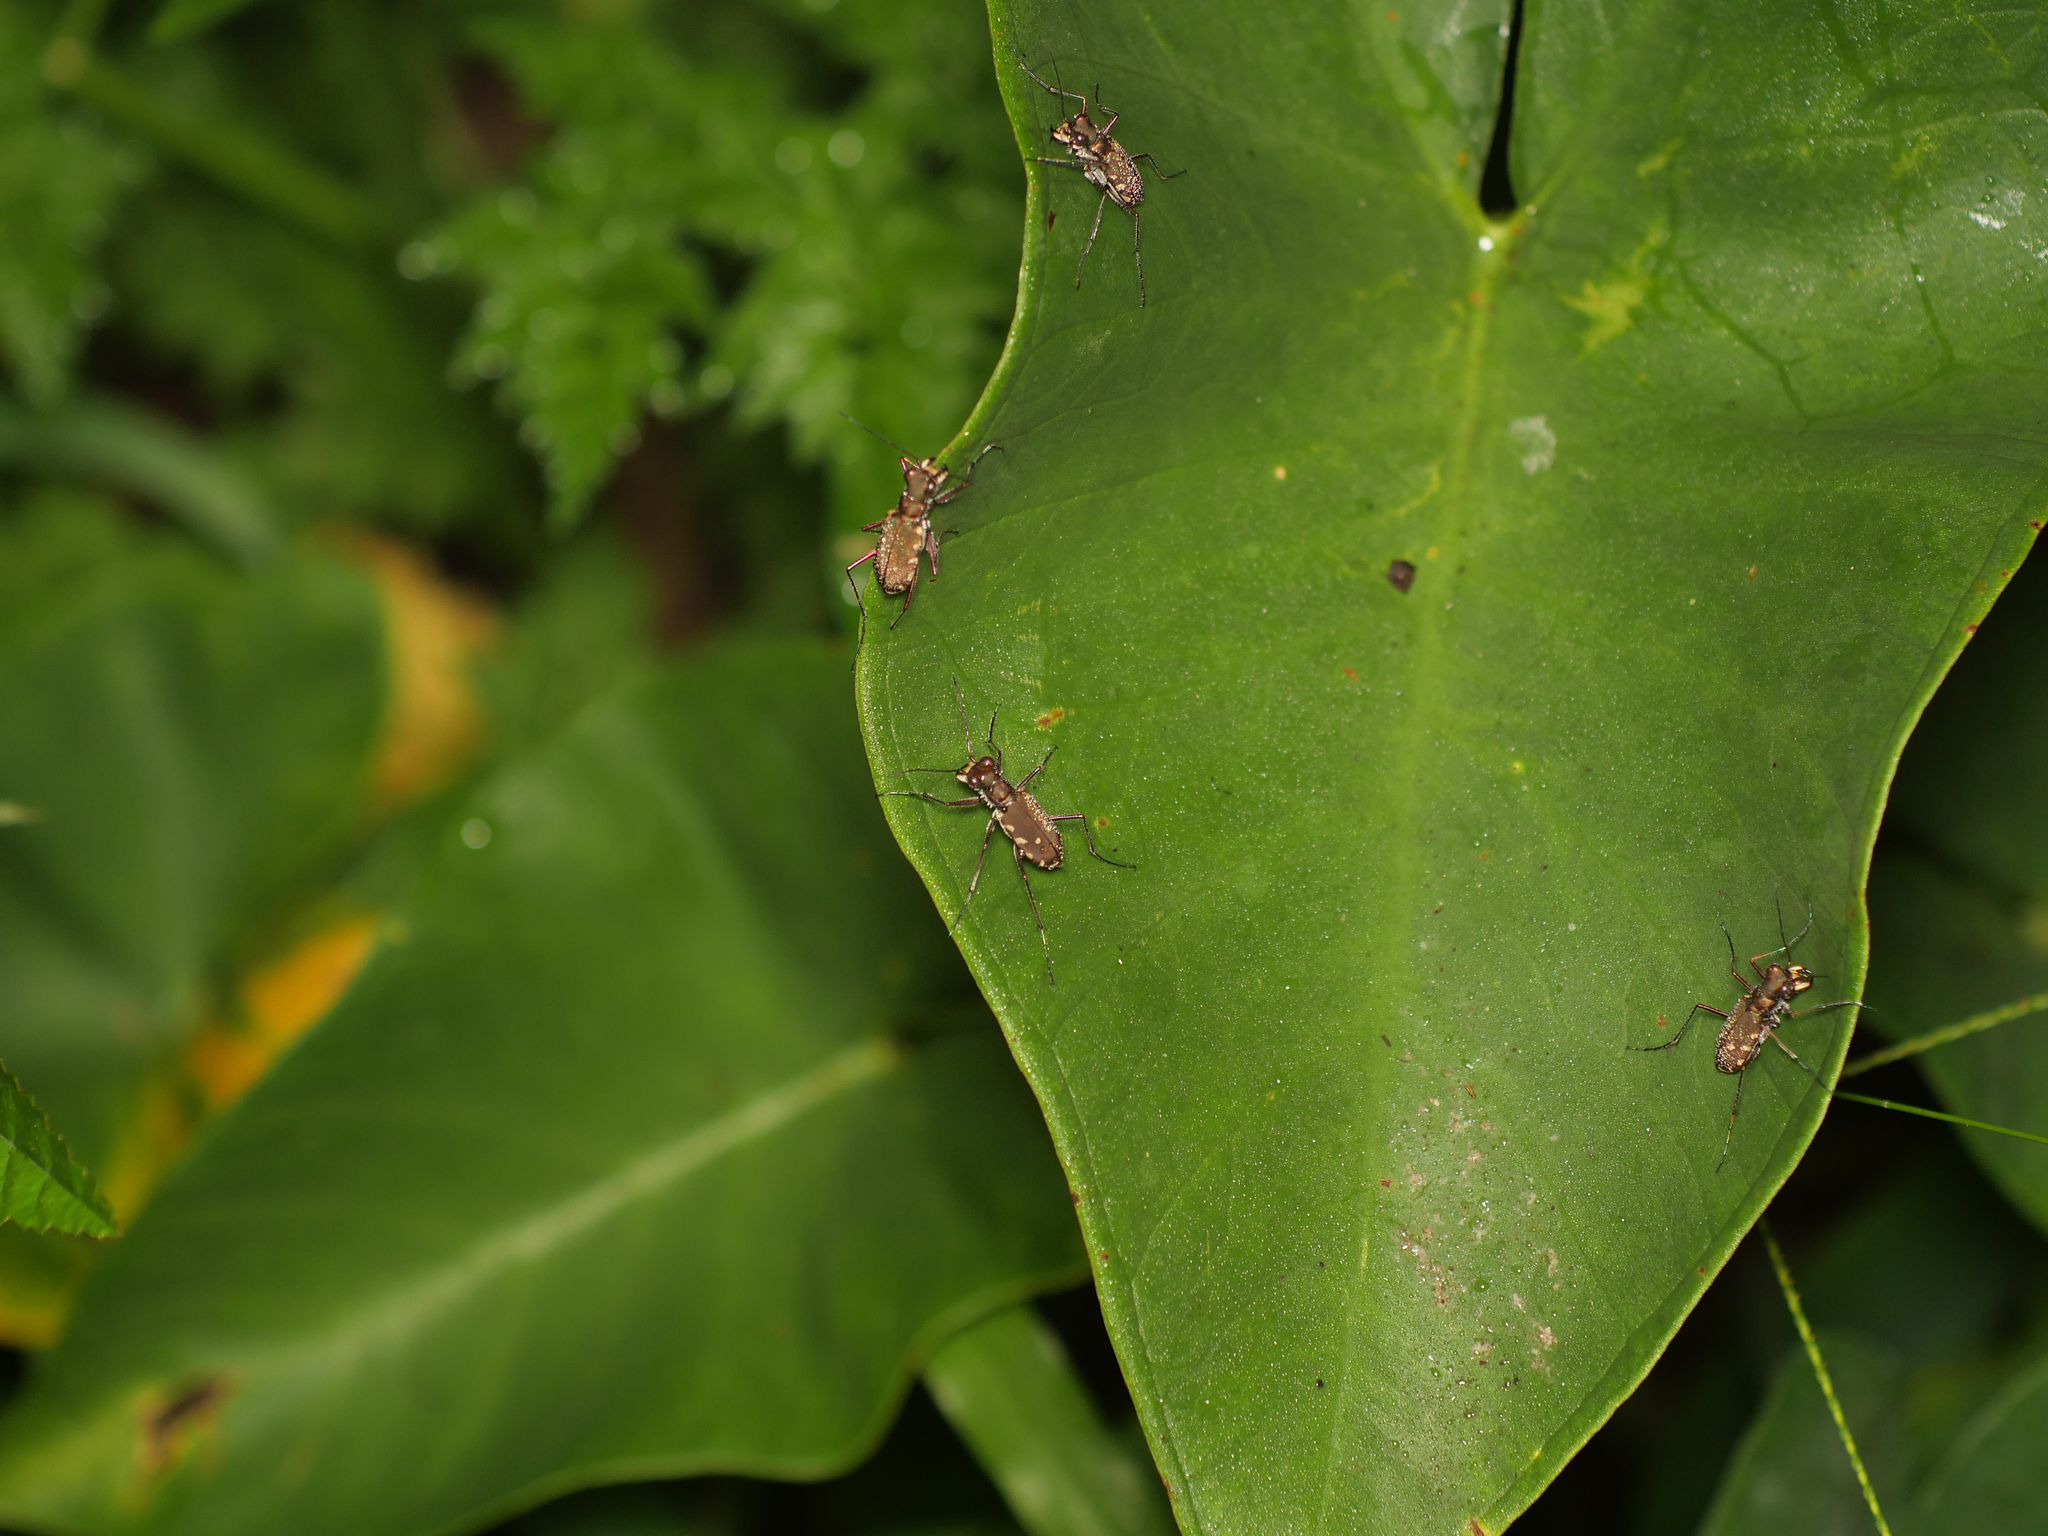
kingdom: Animalia
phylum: Arthropoda
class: Insecta
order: Coleoptera
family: Carabidae
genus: Cicindela
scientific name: Cicindela durvillei
